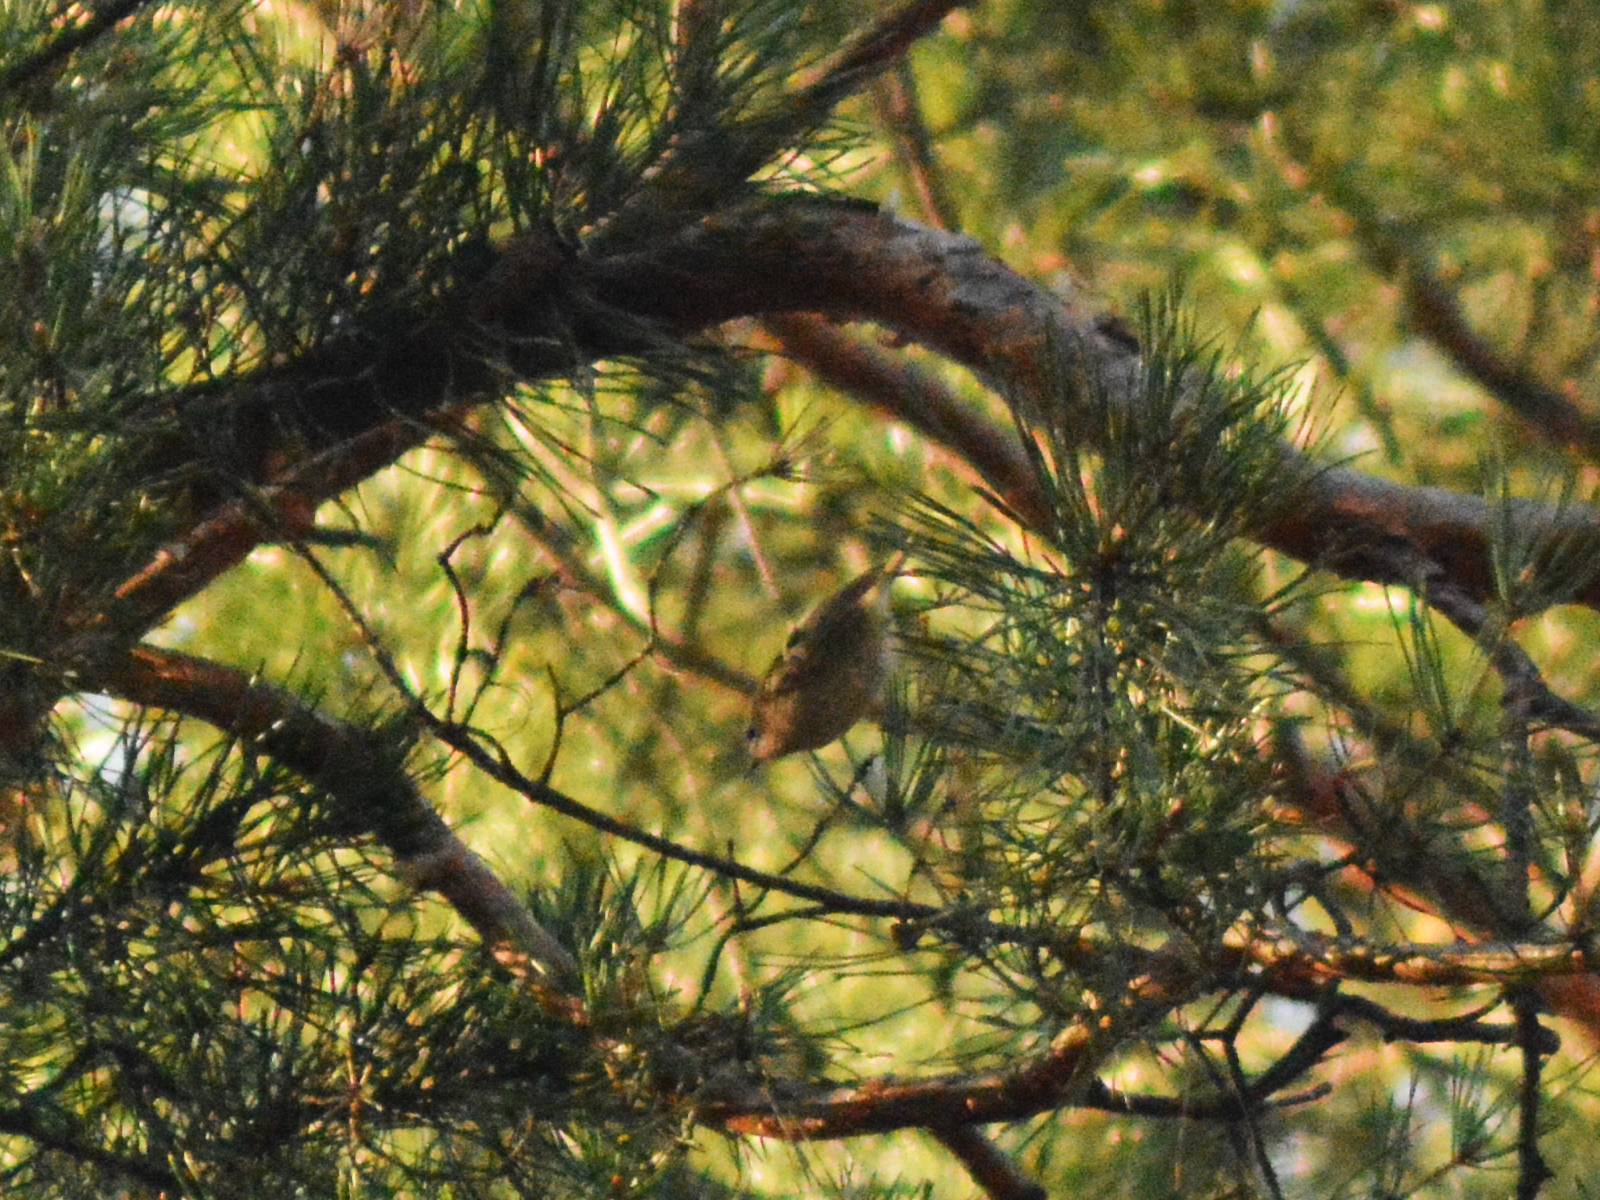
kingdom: Animalia
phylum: Chordata
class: Aves
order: Passeriformes
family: Regulidae
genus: Regulus
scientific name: Regulus regulus
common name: Goldcrest
